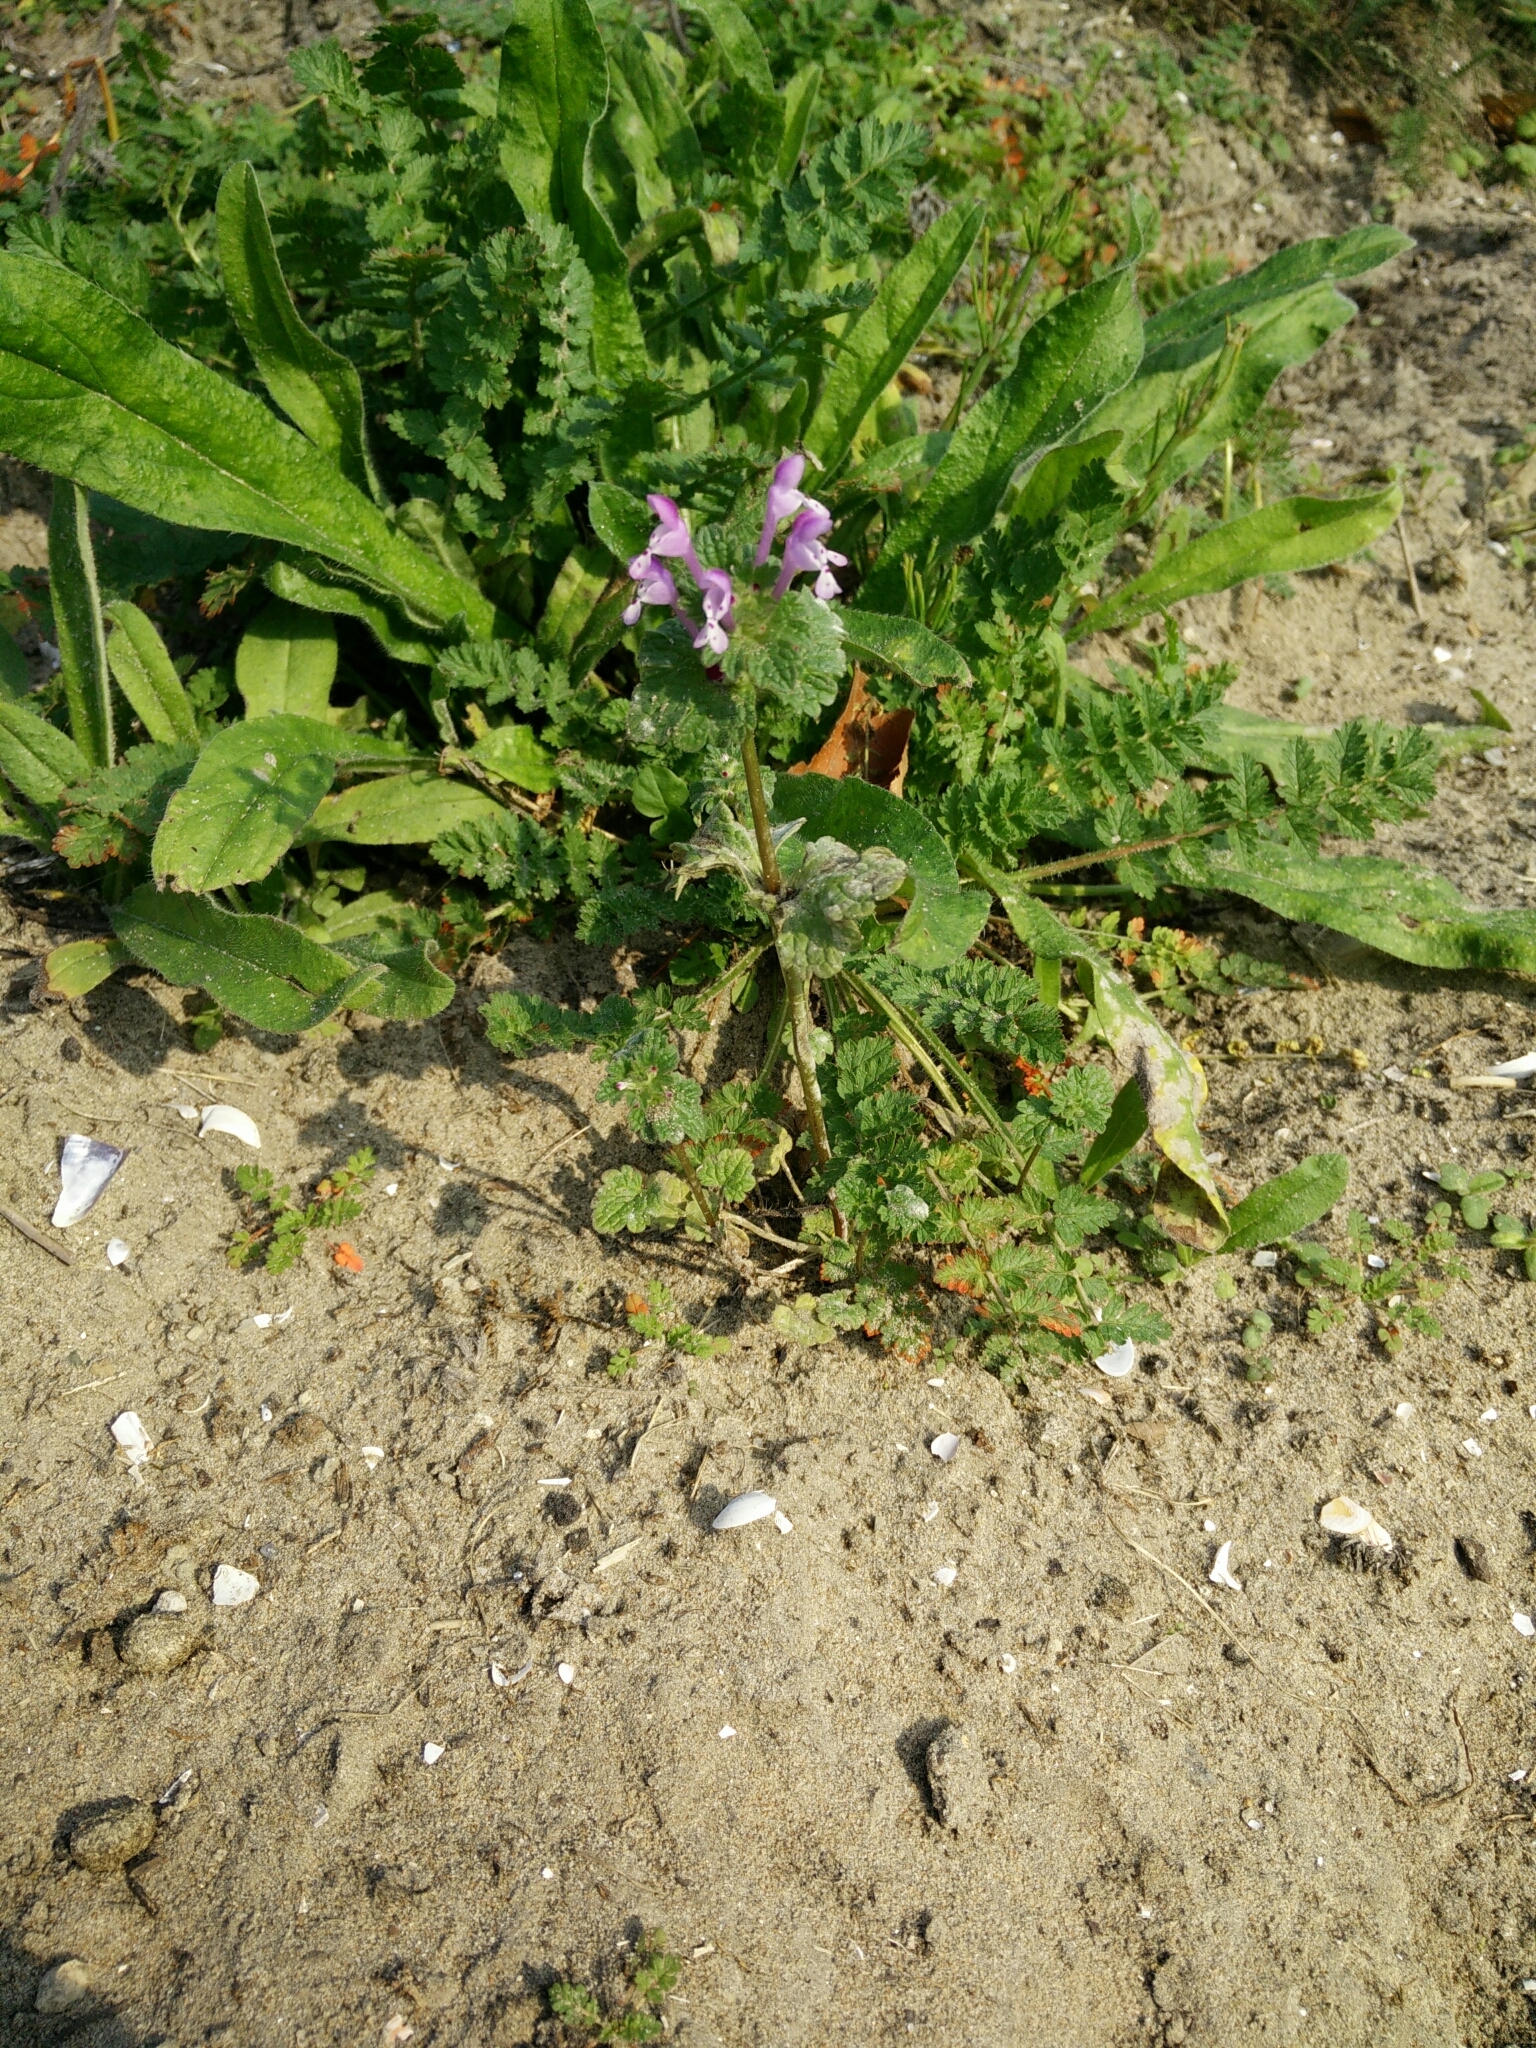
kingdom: Plantae
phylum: Tracheophyta
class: Magnoliopsida
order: Lamiales
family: Lamiaceae
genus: Lamium
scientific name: Lamium amplexicaule
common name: Henbit dead-nettle
